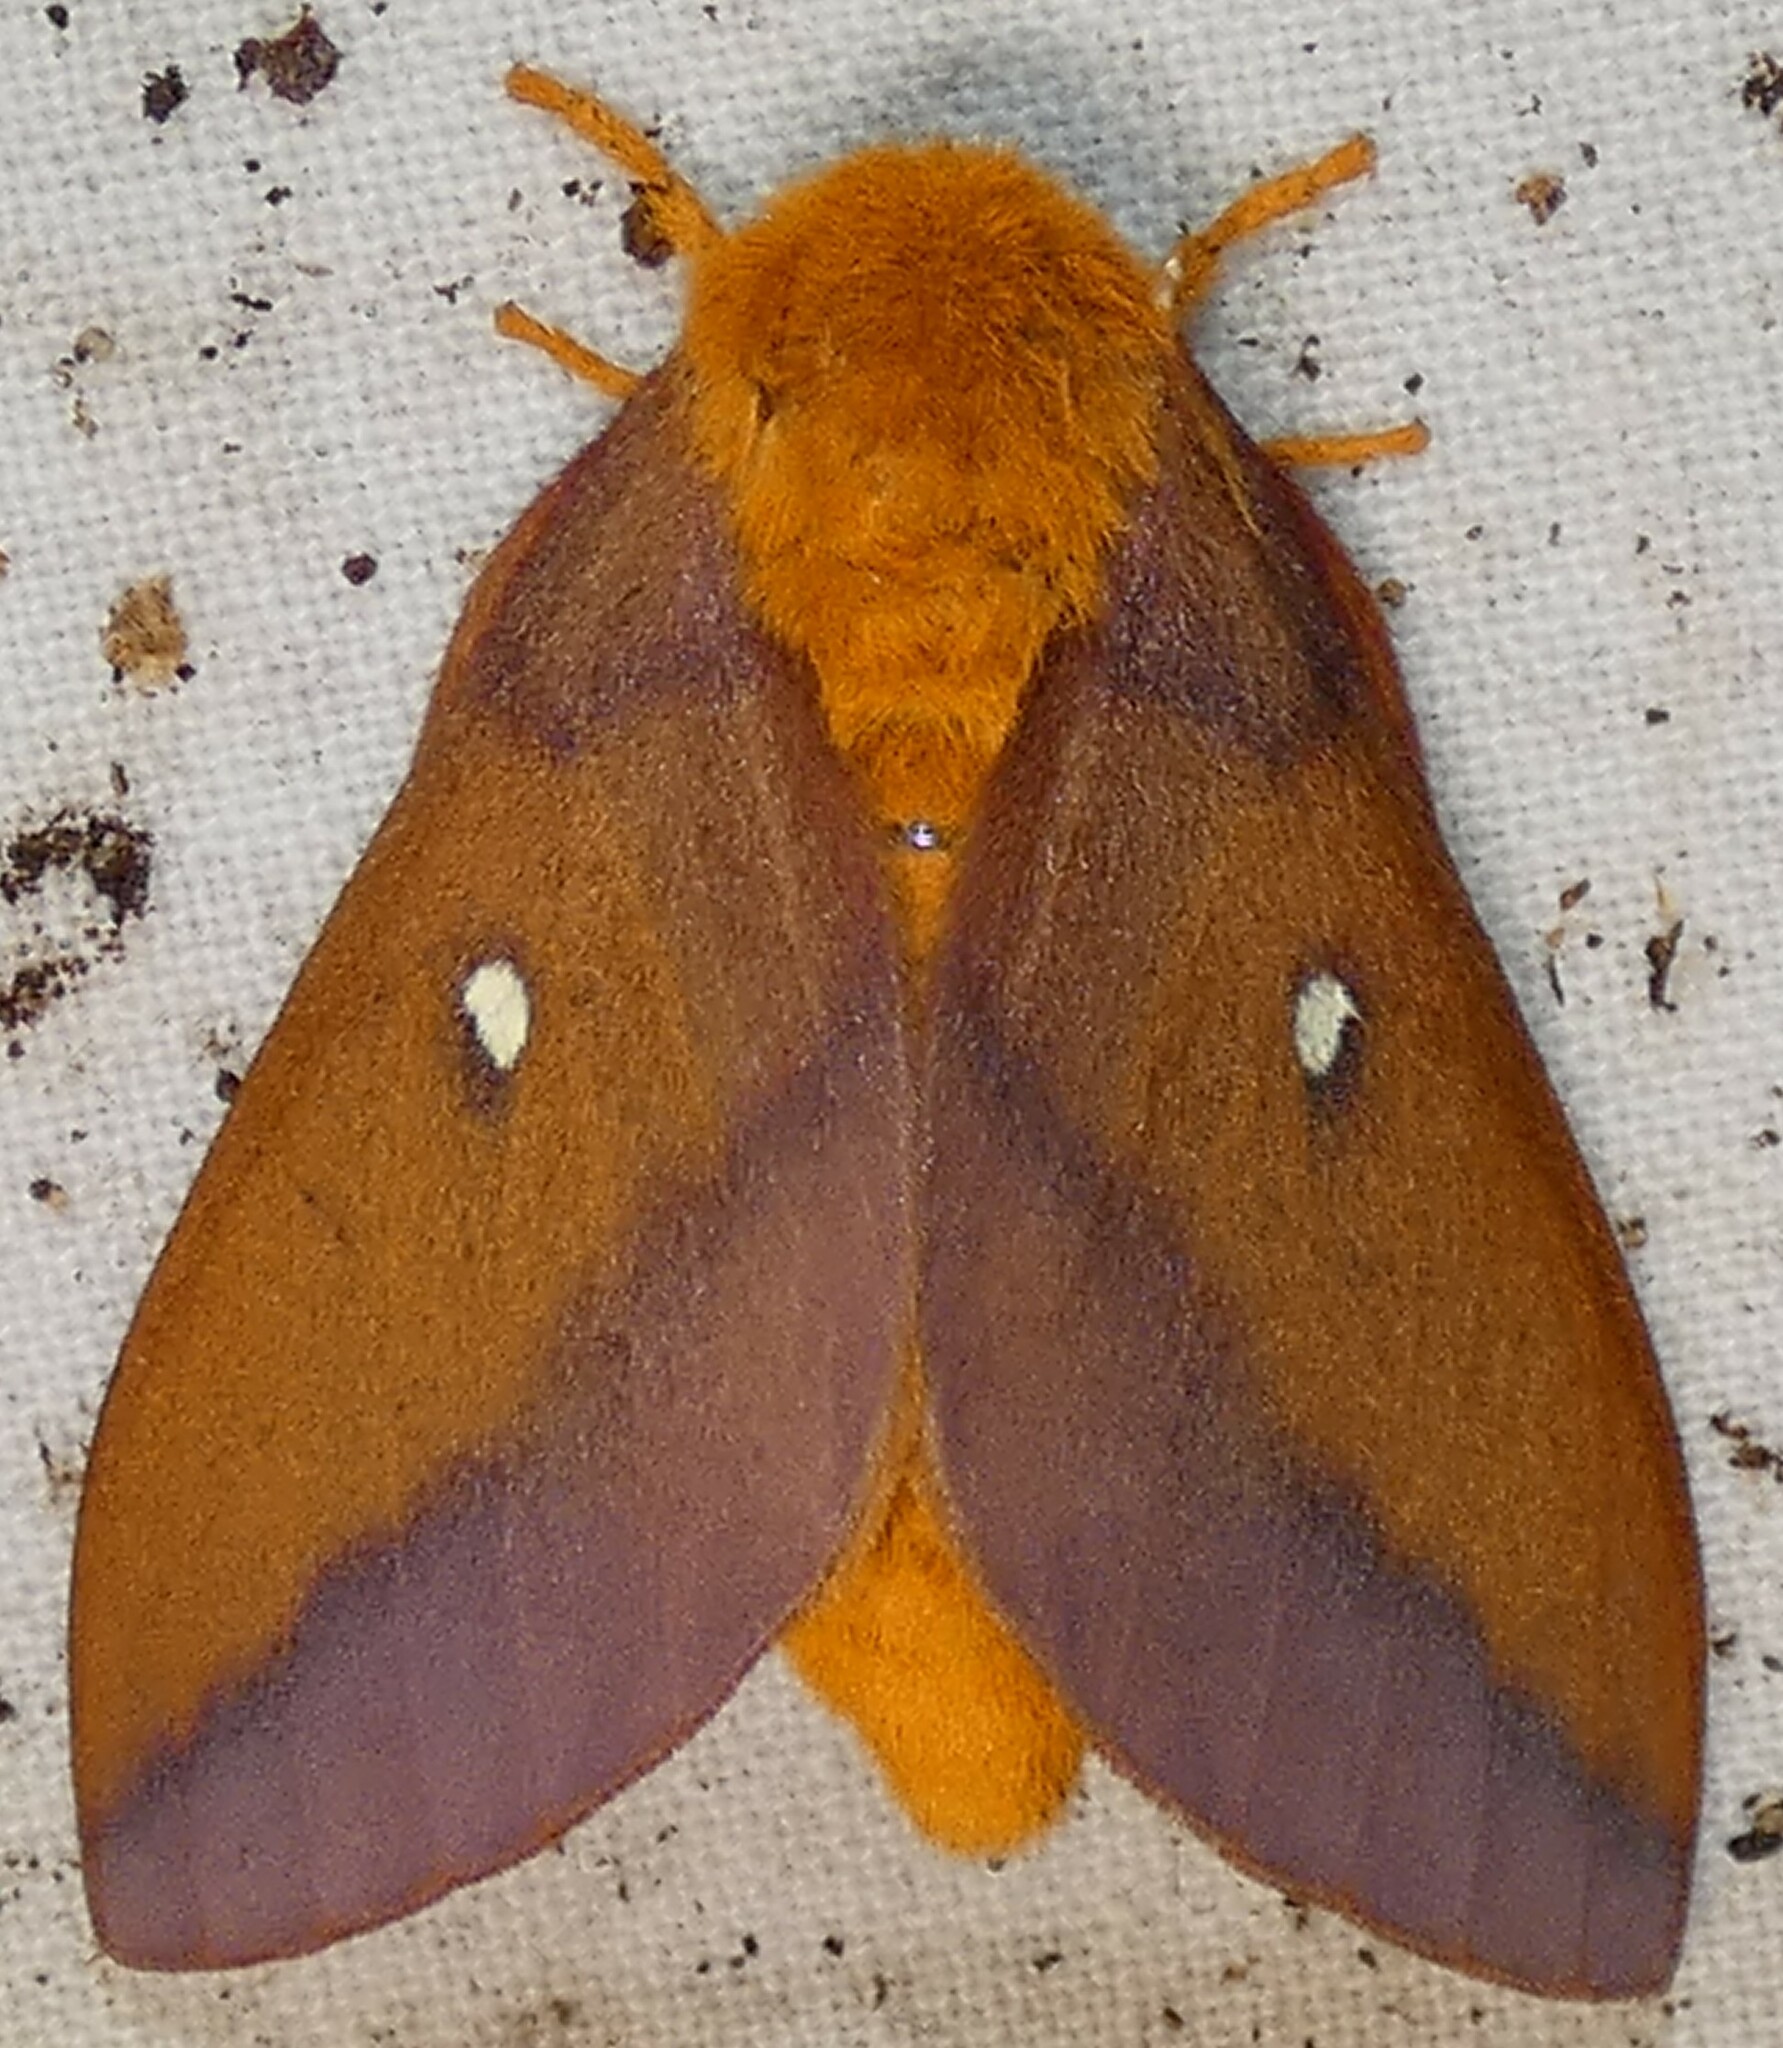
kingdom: Animalia
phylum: Arthropoda
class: Insecta
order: Lepidoptera
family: Saturniidae
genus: Anisota
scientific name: Anisota virginiensis
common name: Pink striped oakworm moth
